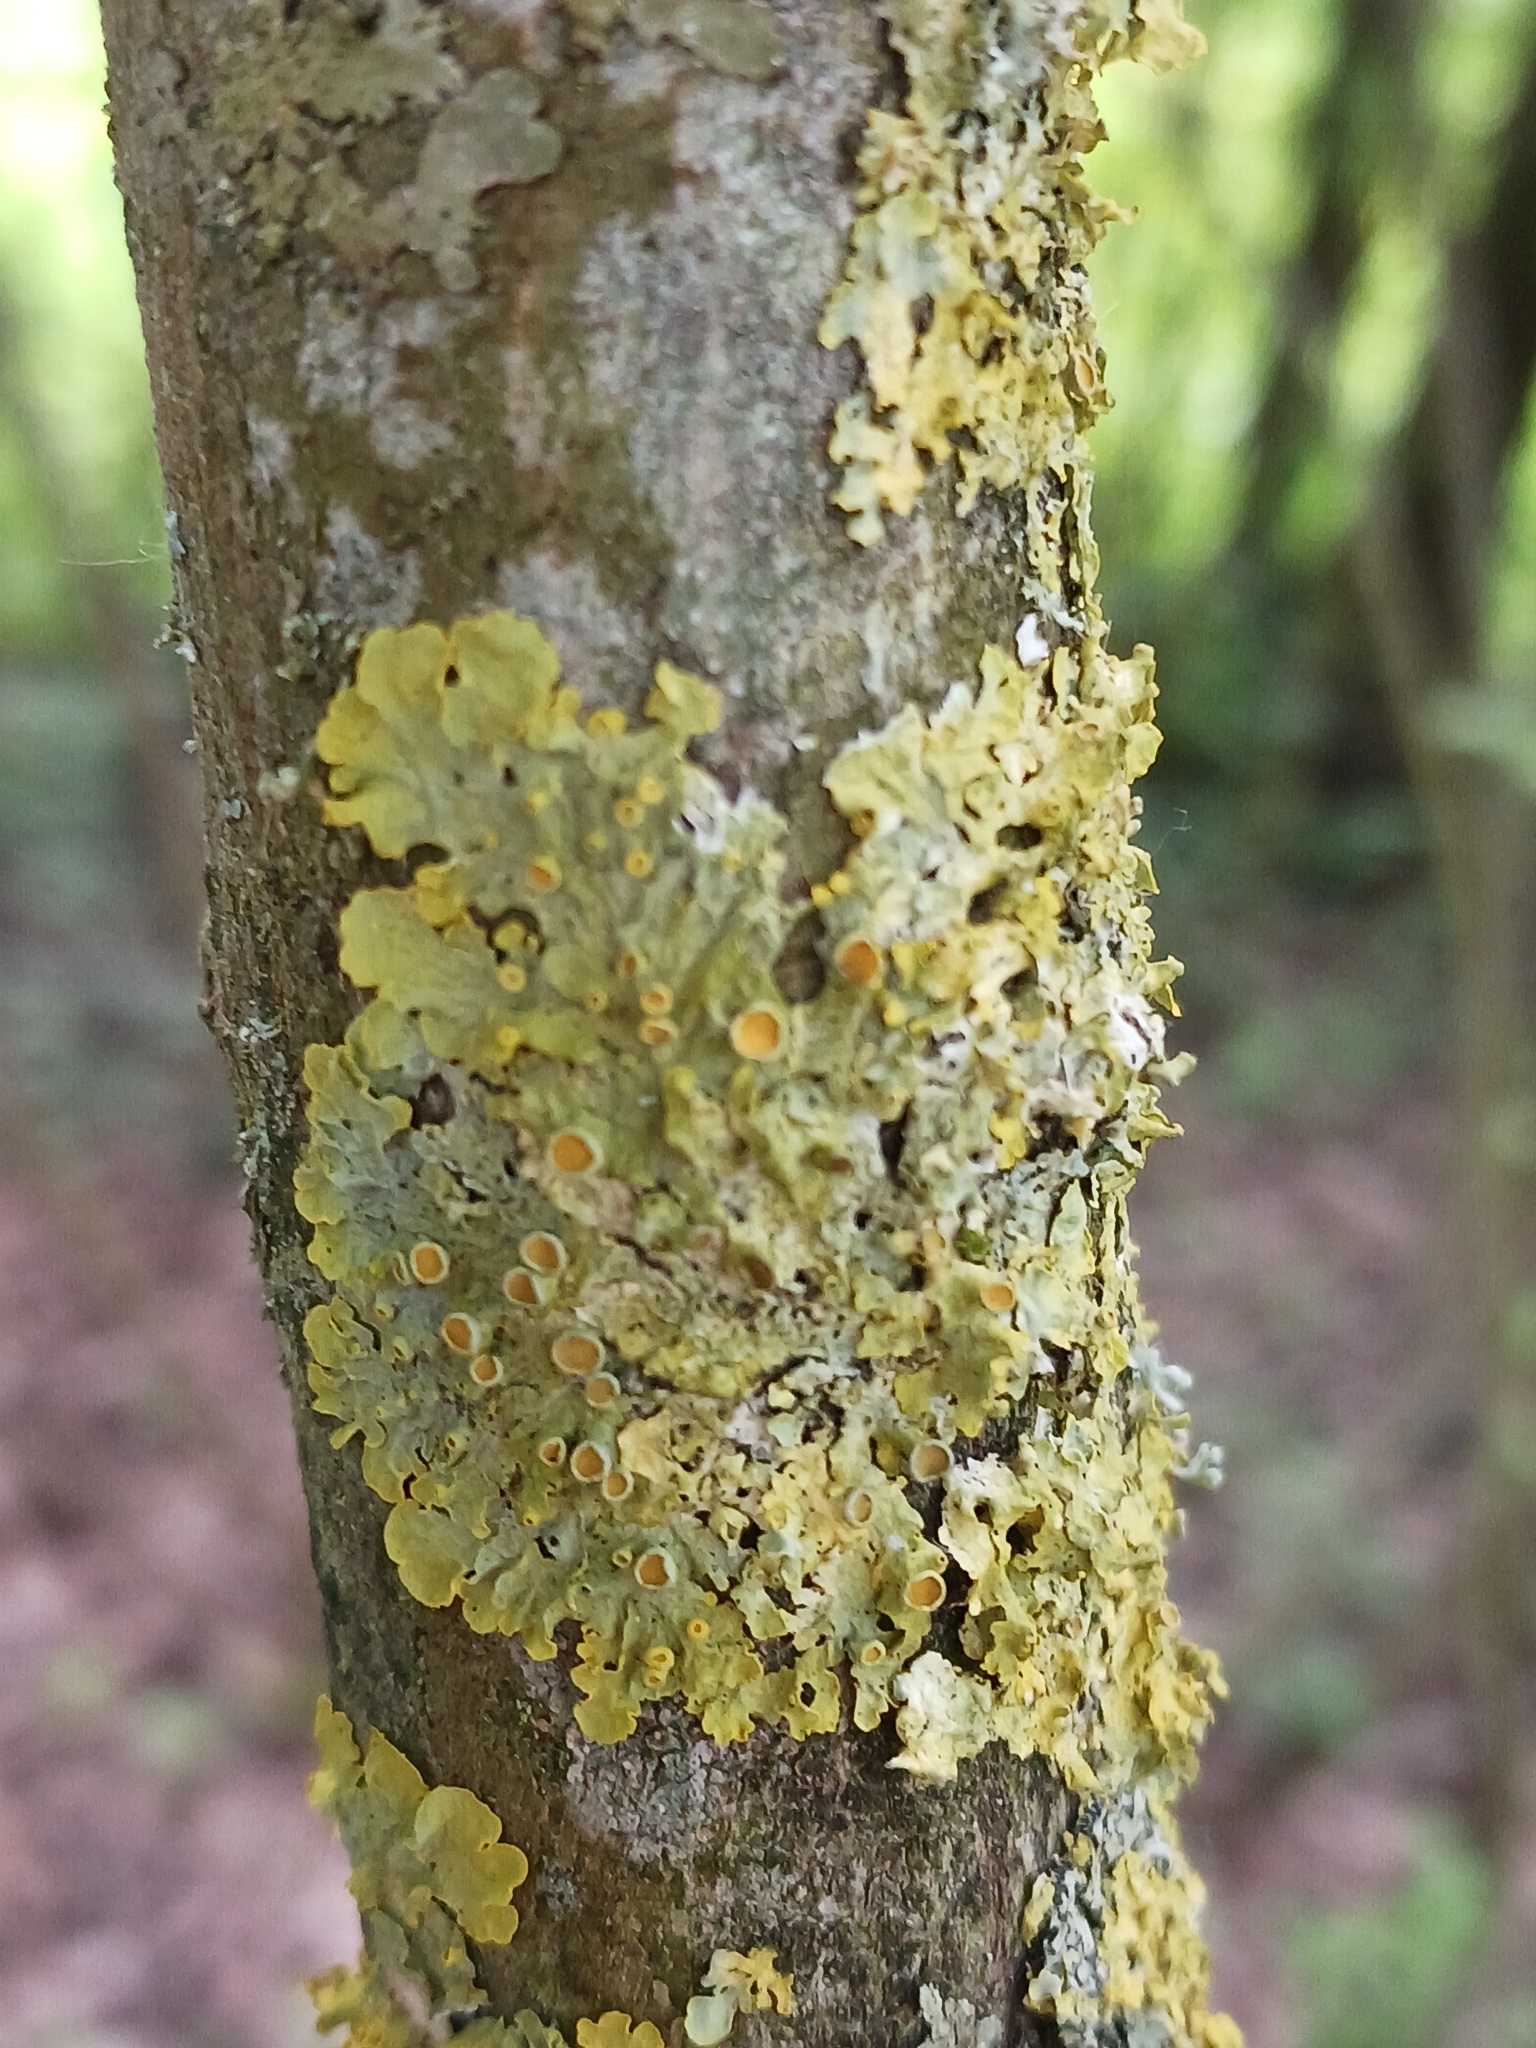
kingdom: Fungi
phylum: Ascomycota
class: Lecanoromycetes
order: Teloschistales
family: Teloschistaceae
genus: Xanthoria
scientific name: Xanthoria parietina
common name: Common orange lichen
